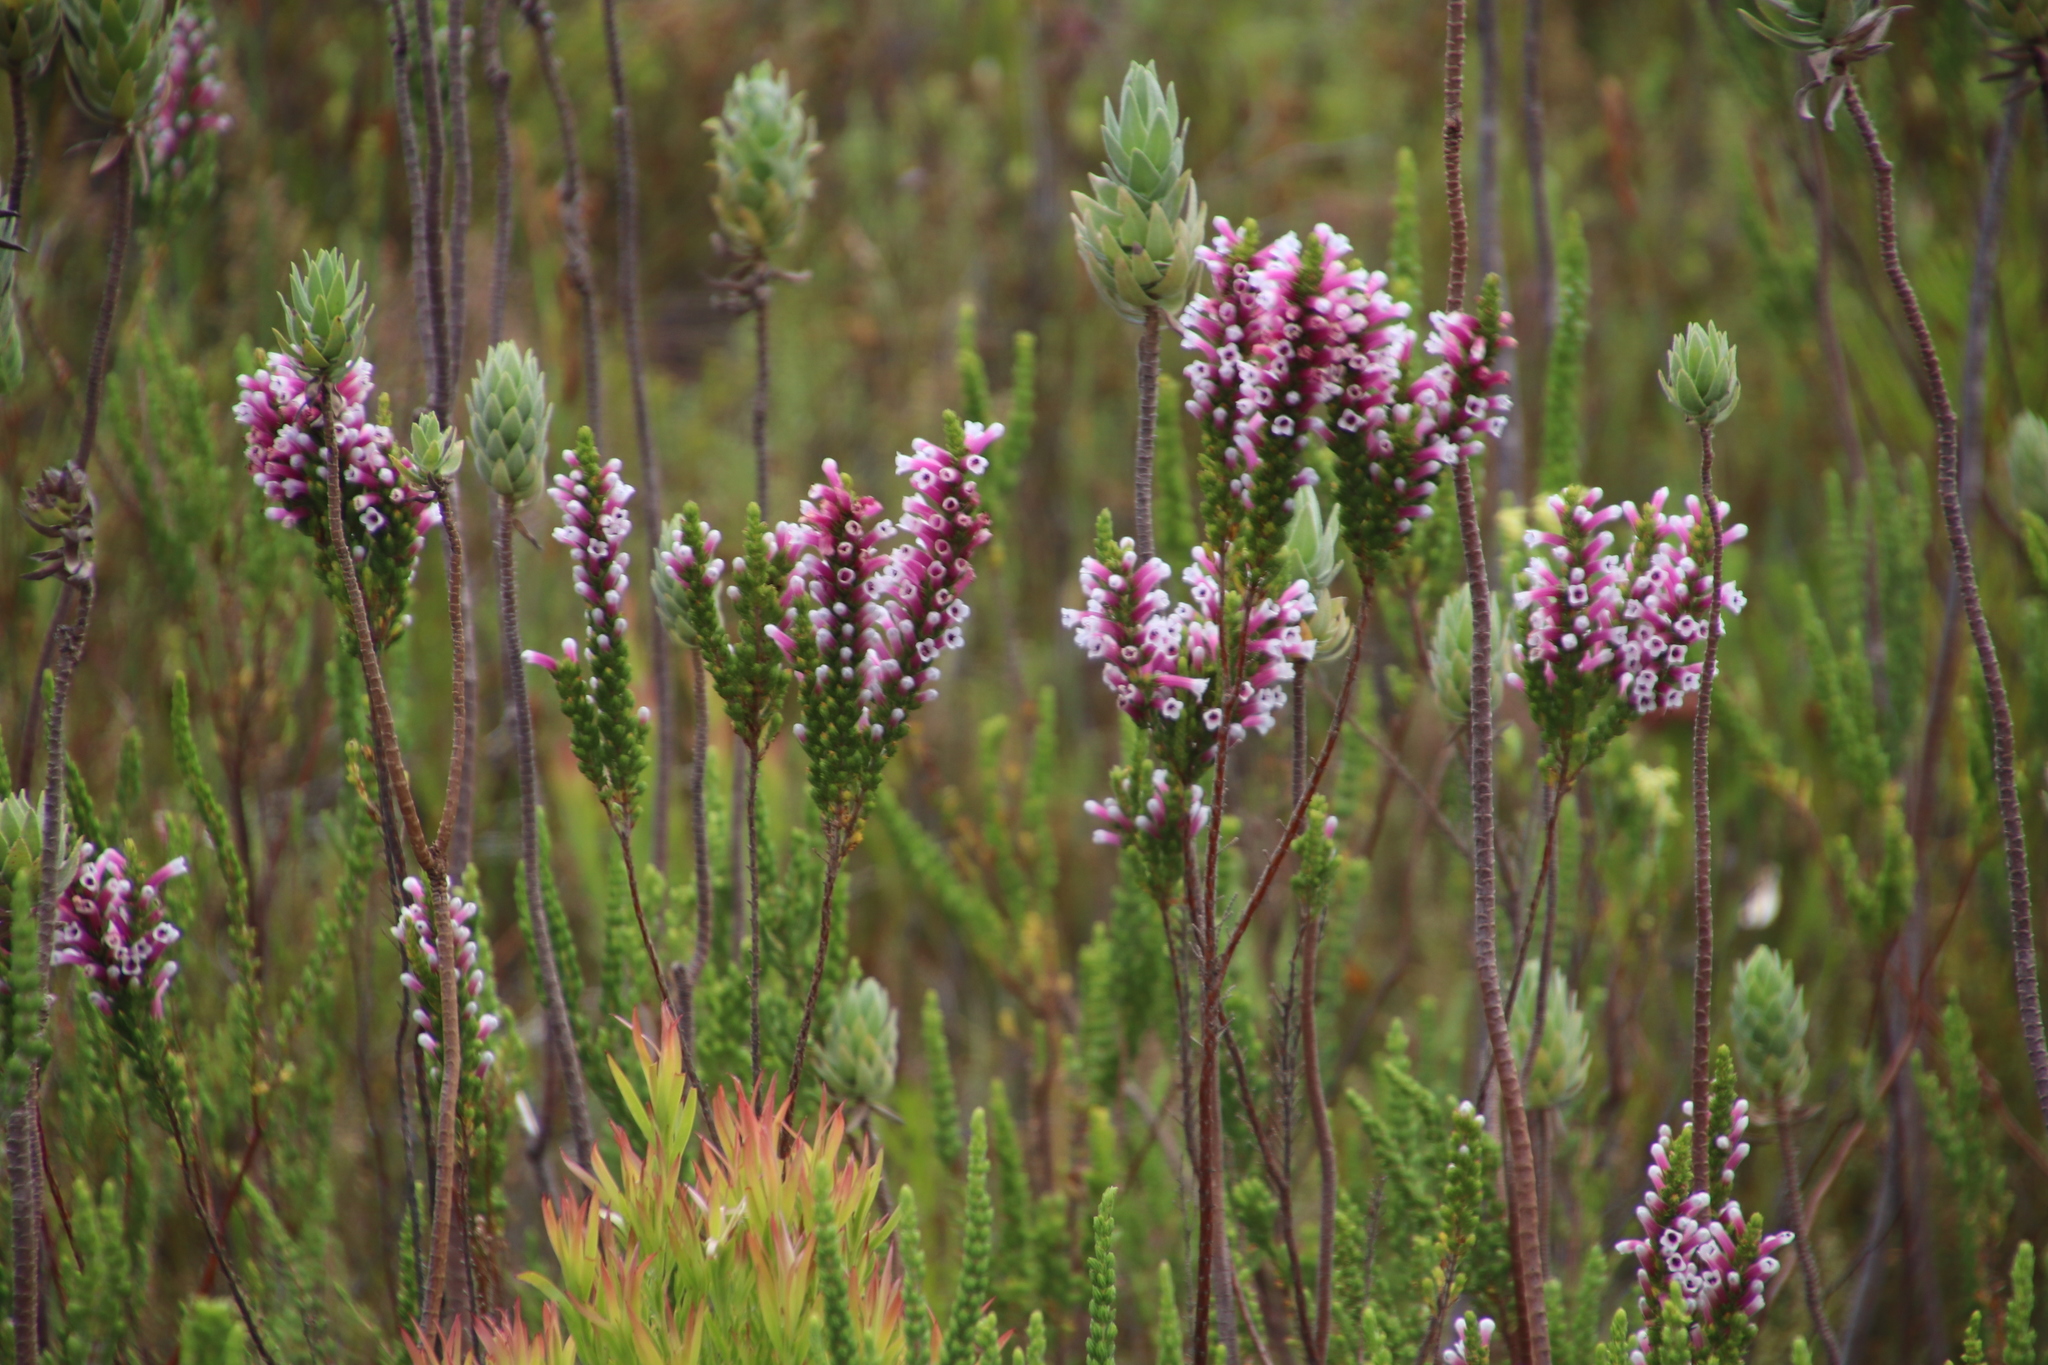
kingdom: Plantae
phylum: Tracheophyta
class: Magnoliopsida
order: Ericales
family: Ericaceae
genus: Erica
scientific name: Erica macowanii
